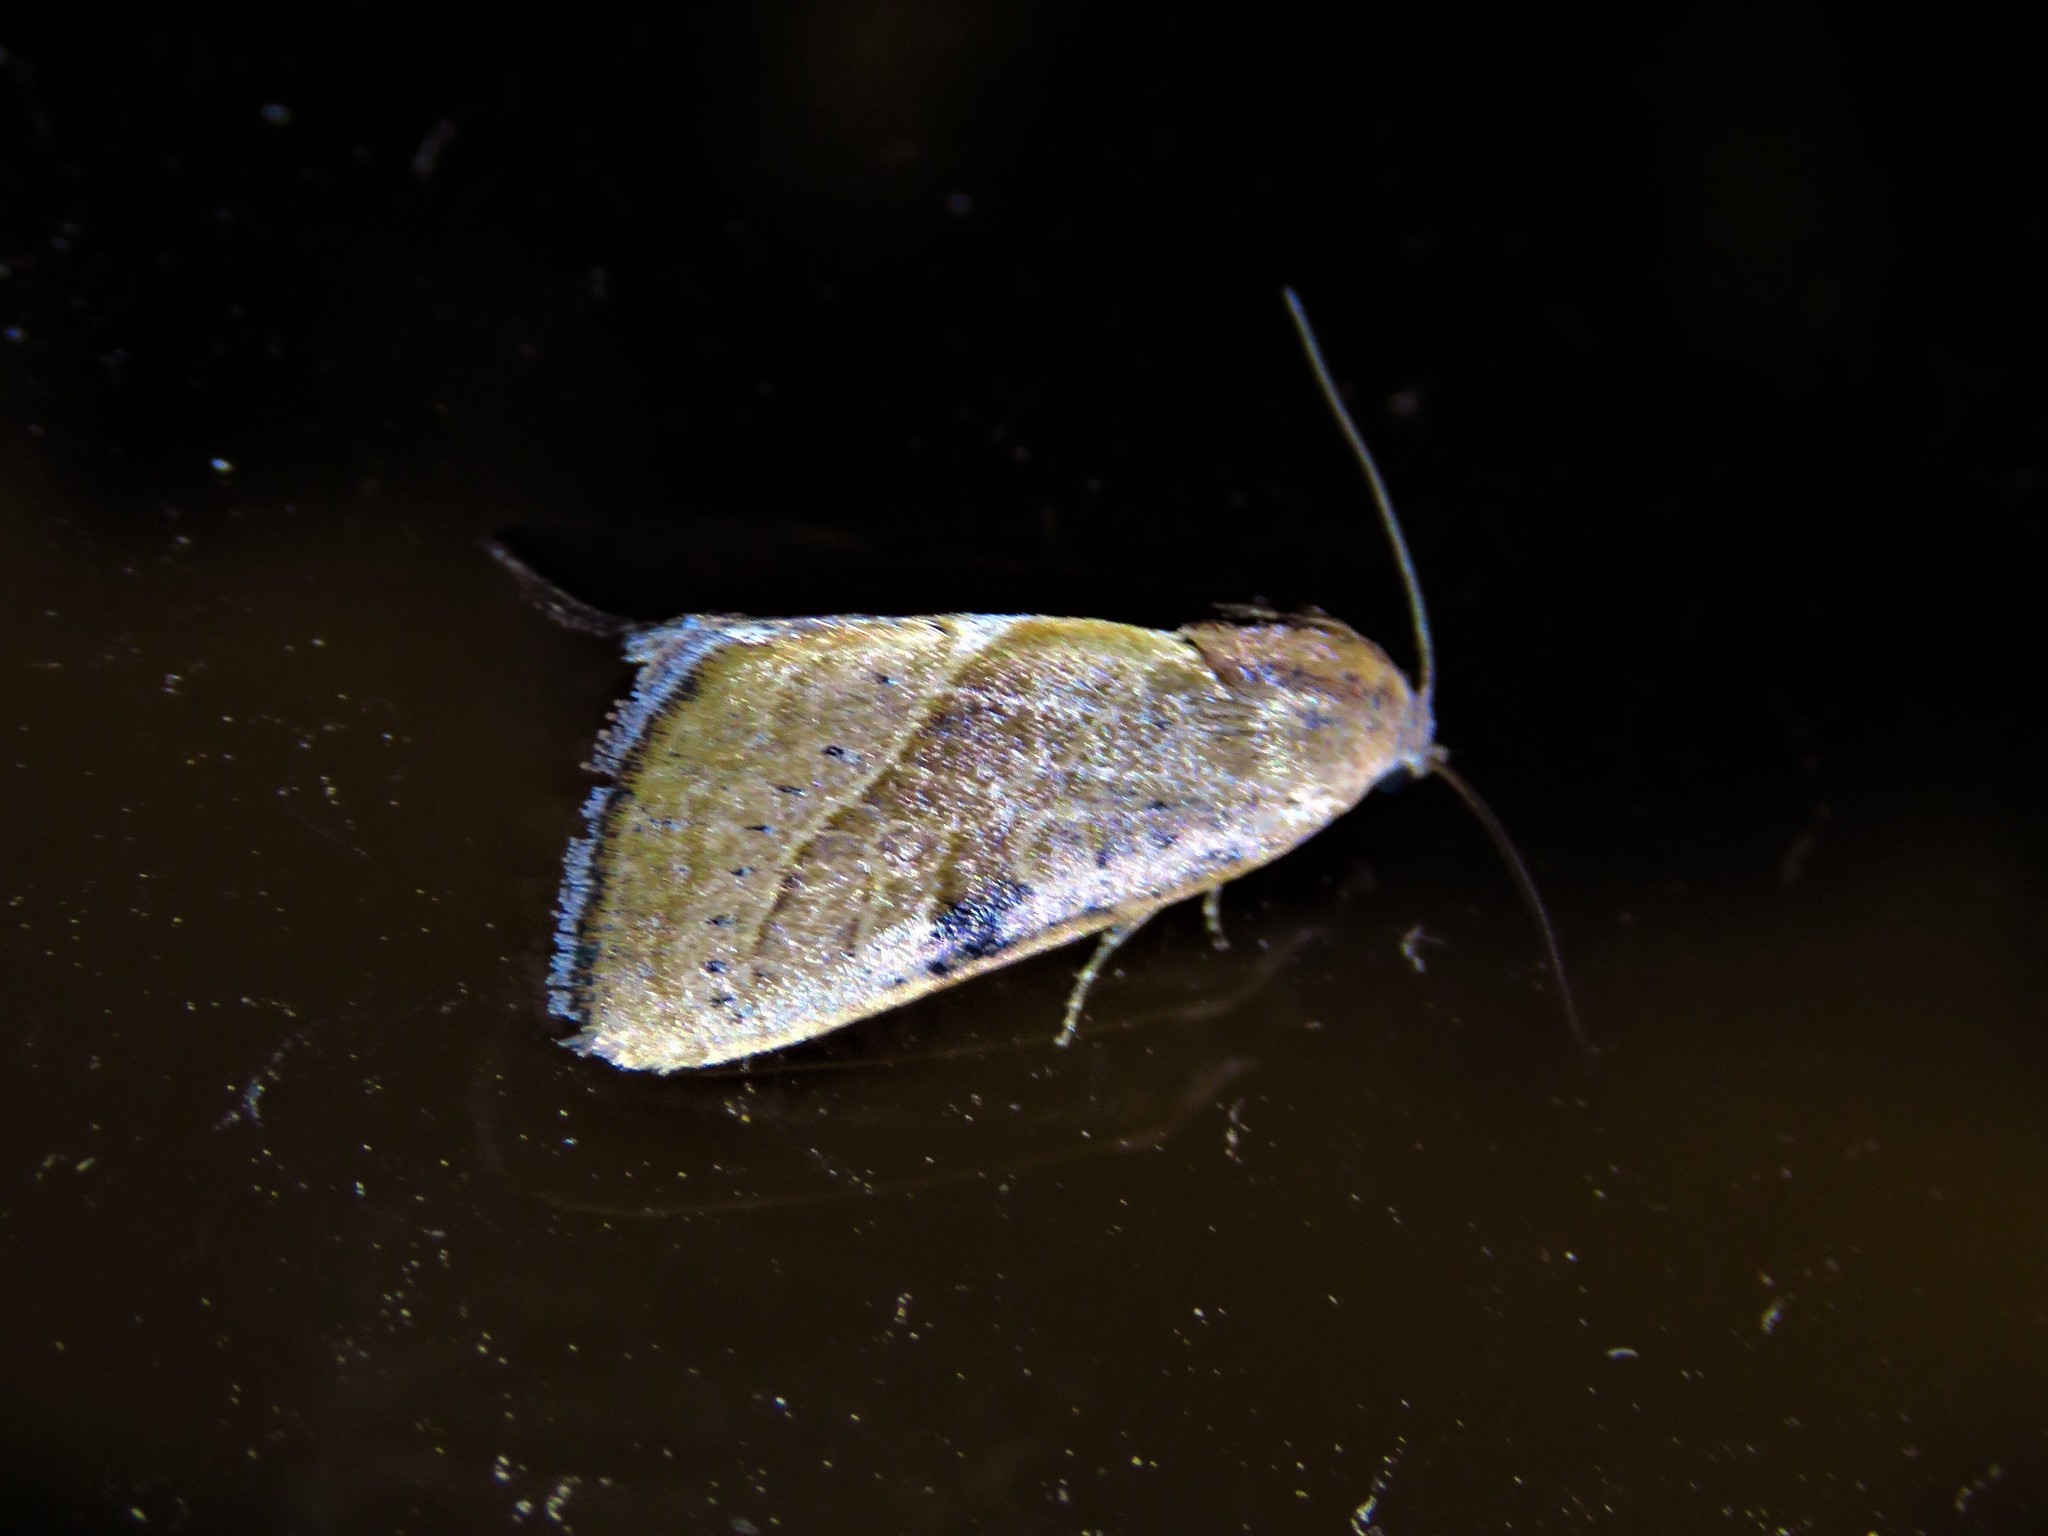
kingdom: Animalia
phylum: Arthropoda
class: Insecta
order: Lepidoptera
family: Noctuidae
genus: Galgula
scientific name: Galgula partita
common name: Wedgeling
